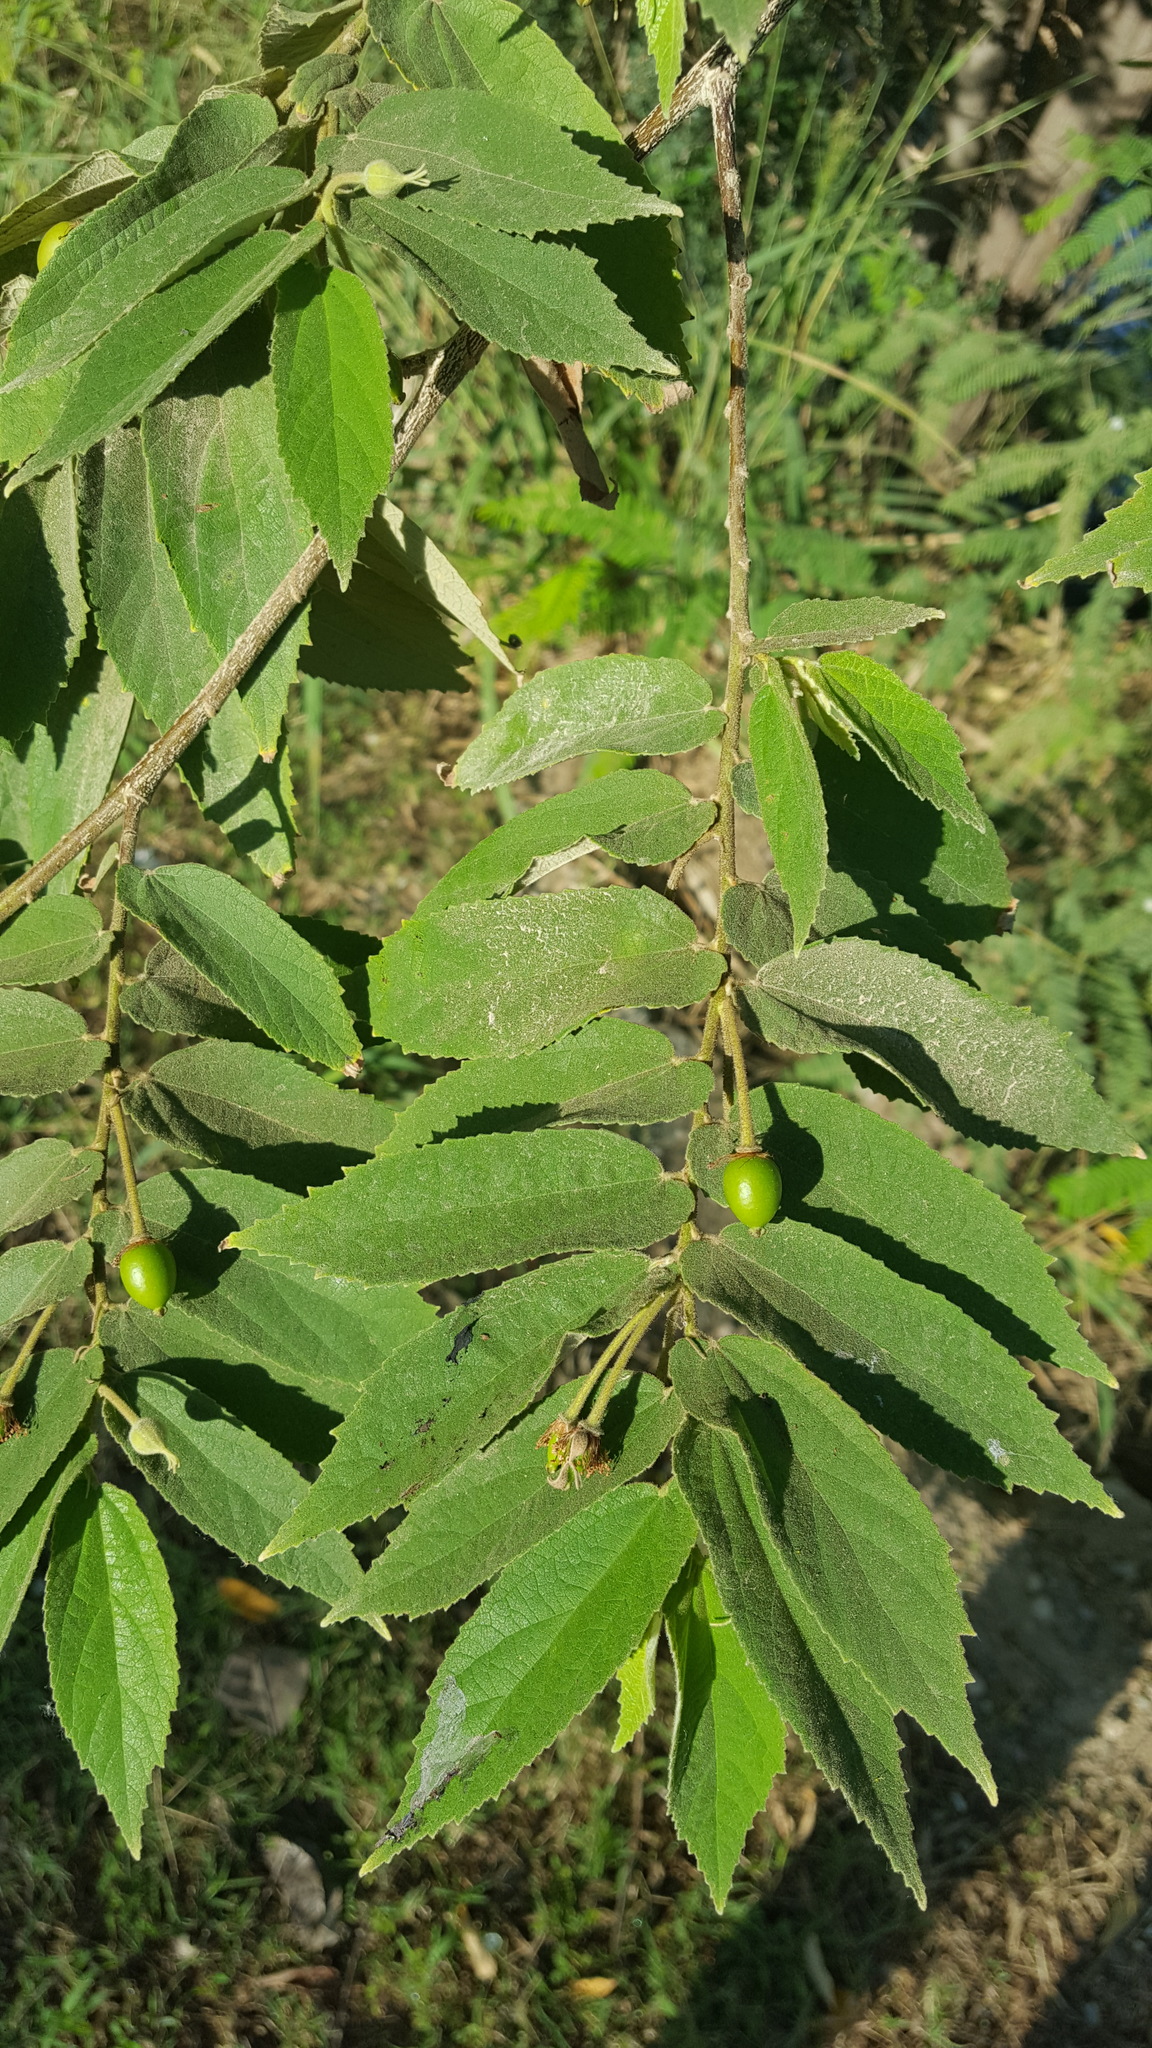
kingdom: Plantae
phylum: Tracheophyta
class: Magnoliopsida
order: Malvales
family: Muntingiaceae
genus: Muntingia
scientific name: Muntingia calabura
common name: Strawberrytree
